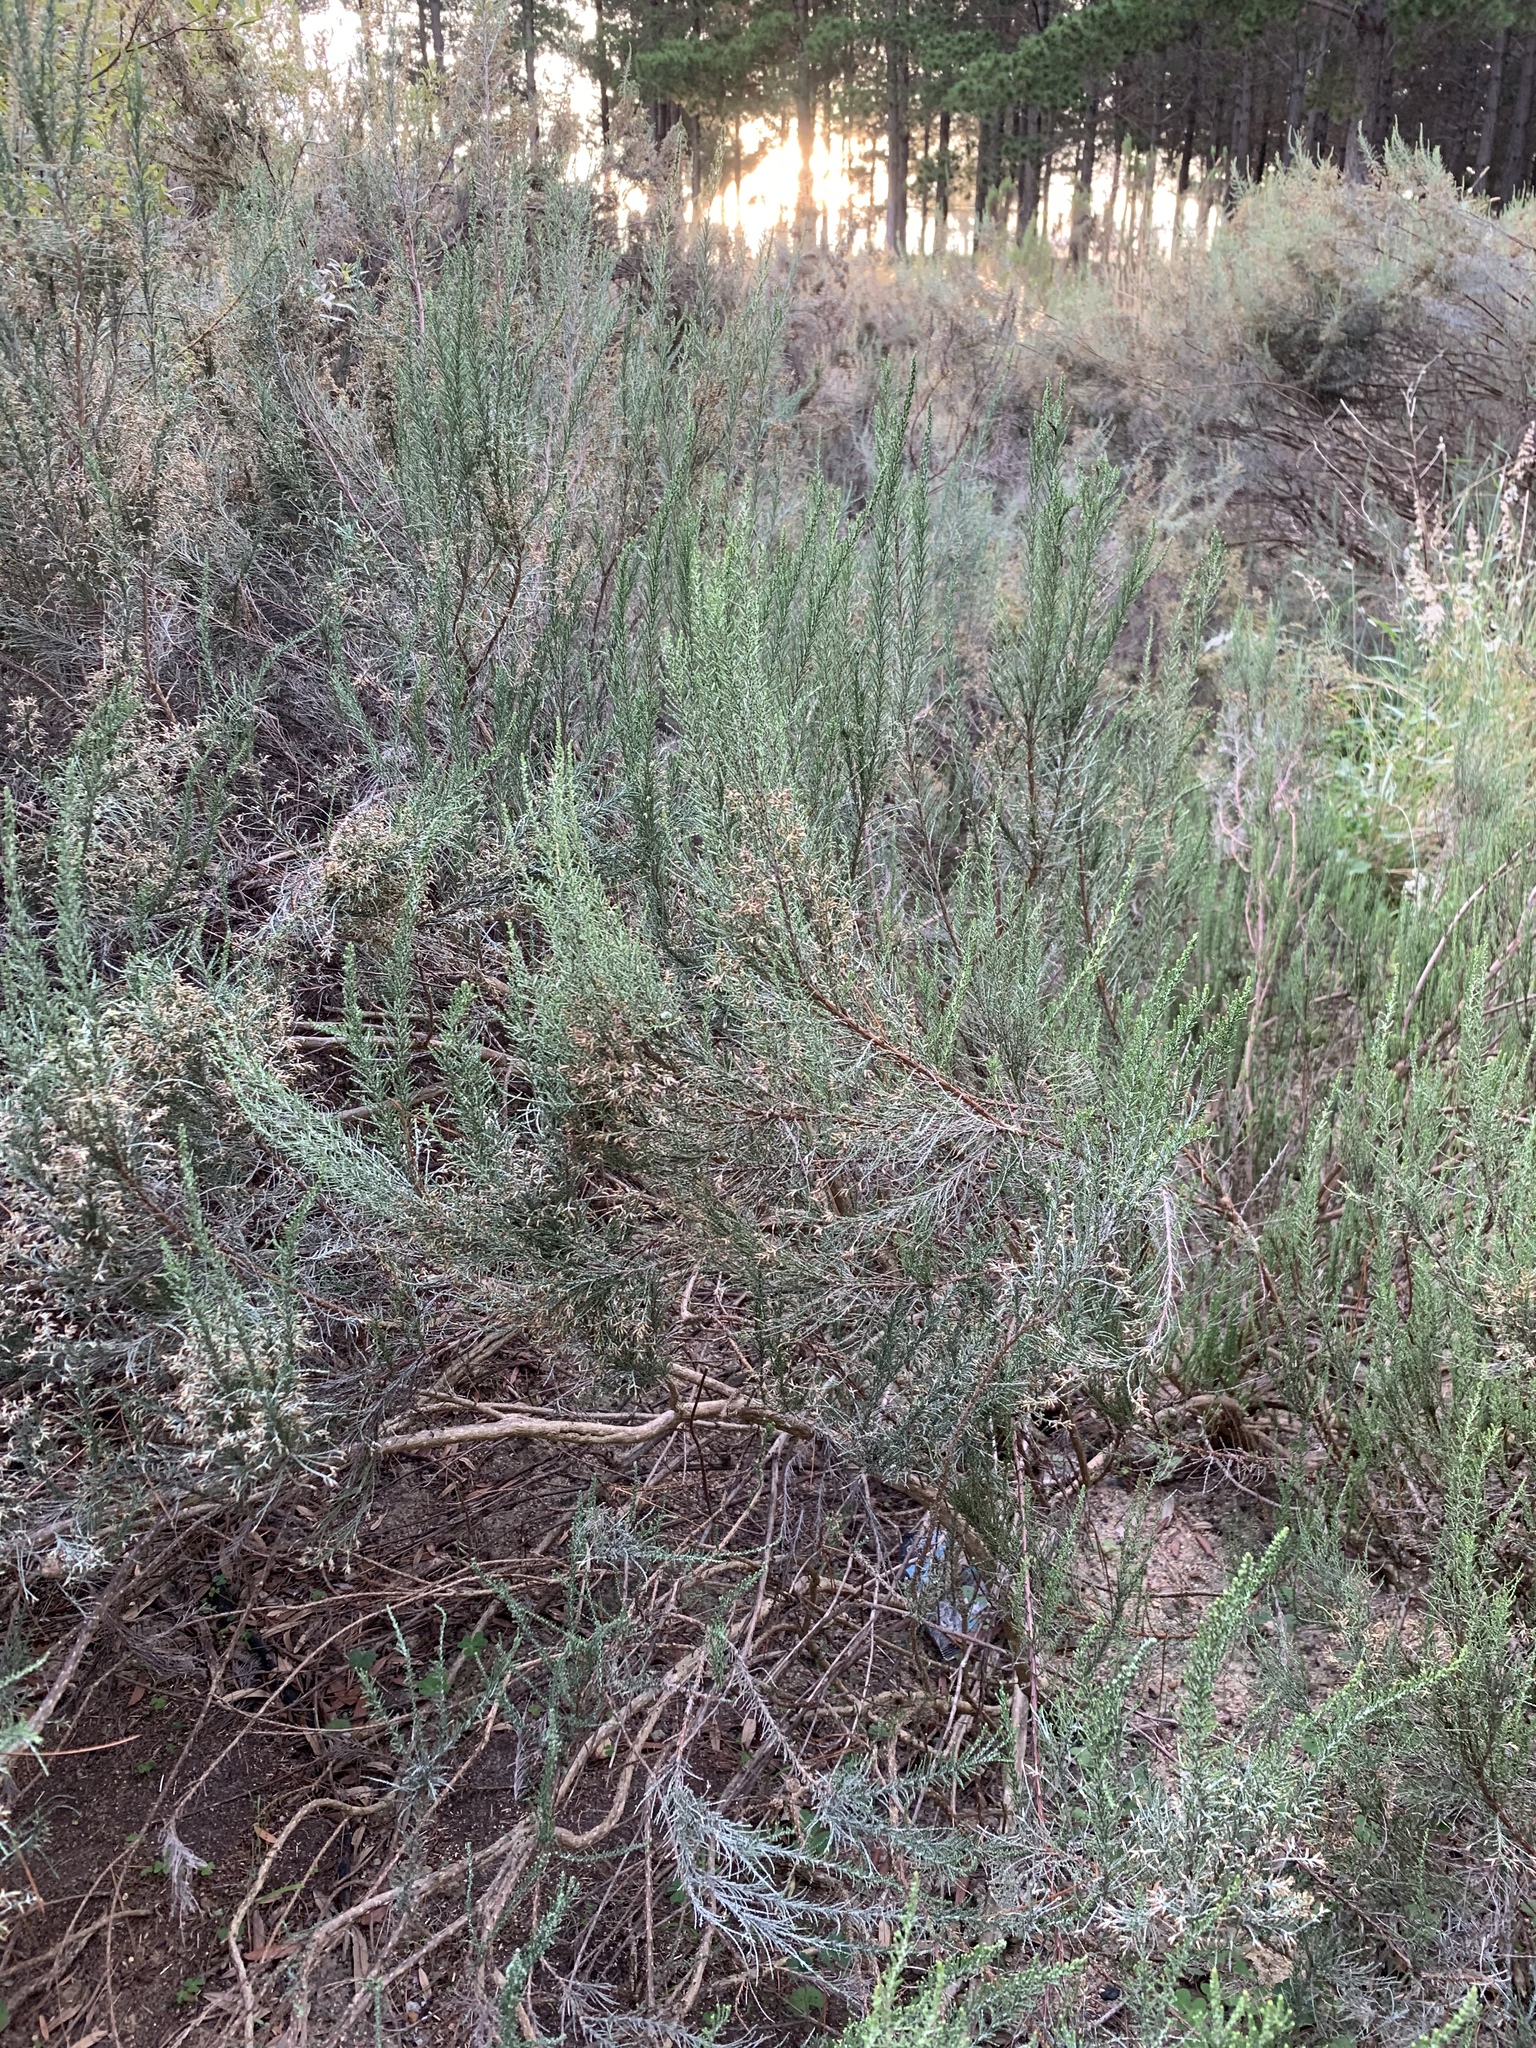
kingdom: Plantae
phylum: Tracheophyta
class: Magnoliopsida
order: Asterales
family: Asteraceae
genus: Dicerothamnus
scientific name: Dicerothamnus rhinocerotis
